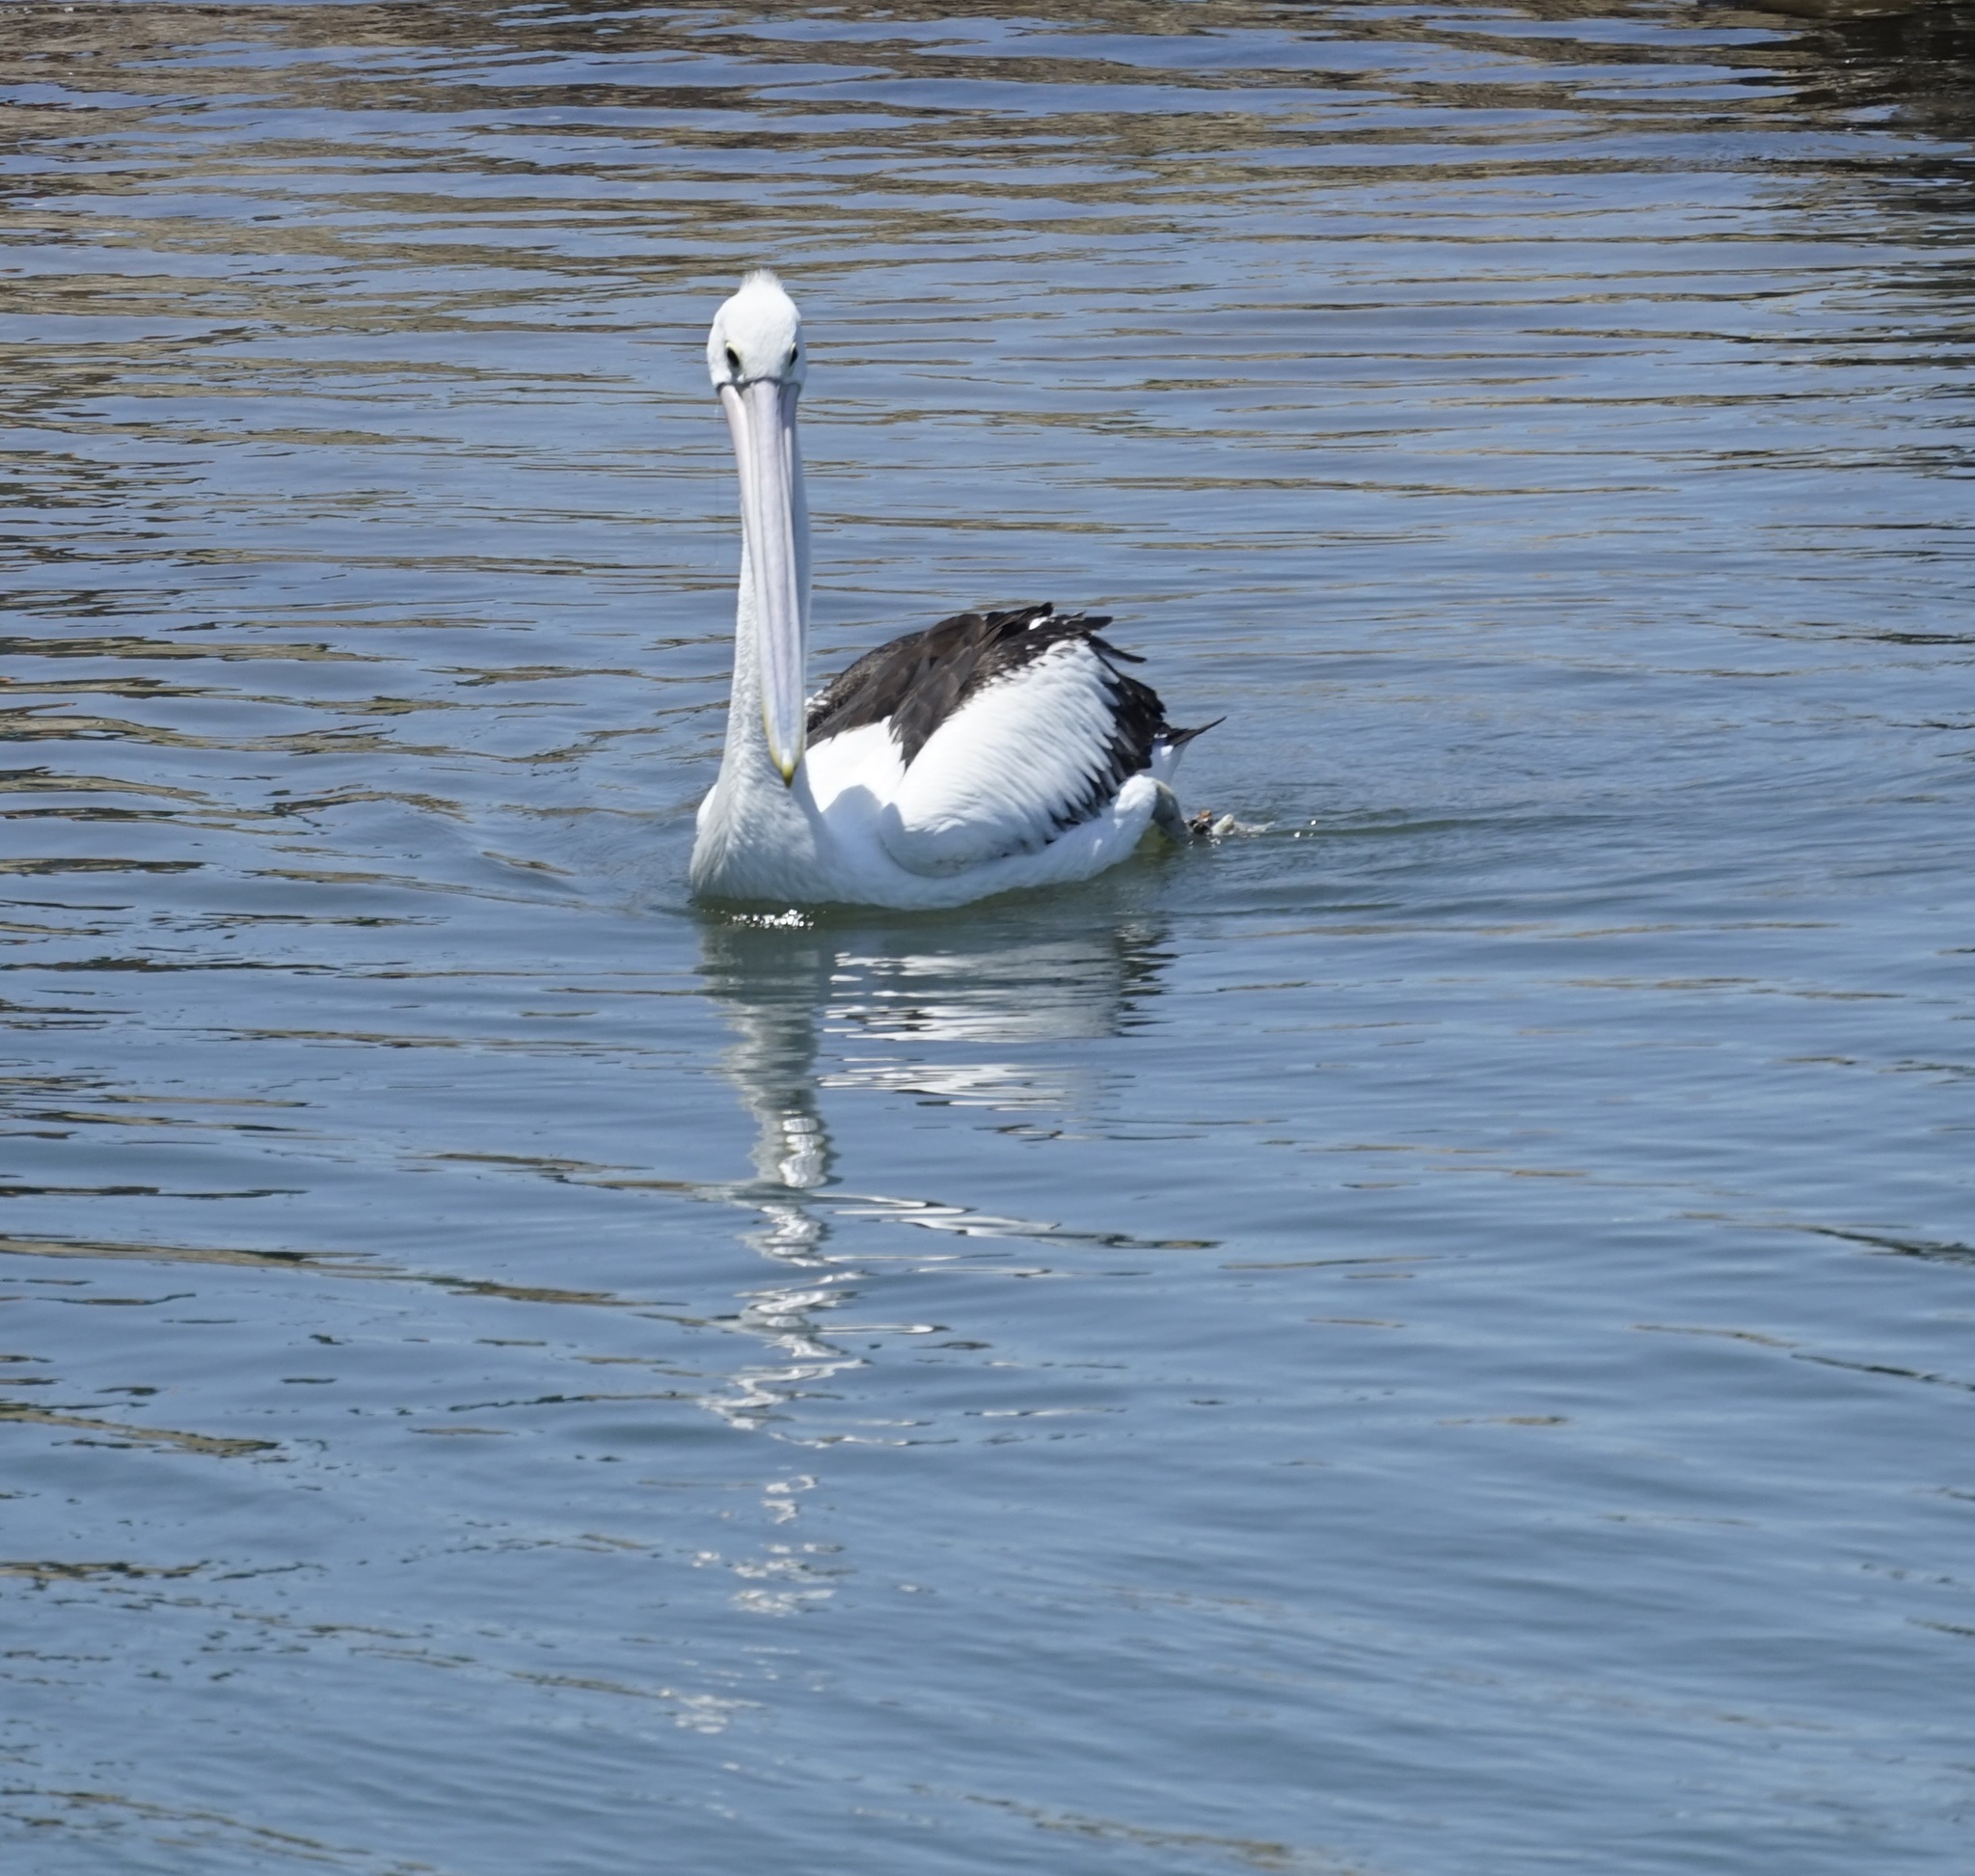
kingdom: Animalia
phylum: Chordata
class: Aves
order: Pelecaniformes
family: Pelecanidae
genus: Pelecanus
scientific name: Pelecanus conspicillatus
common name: Australian pelican
